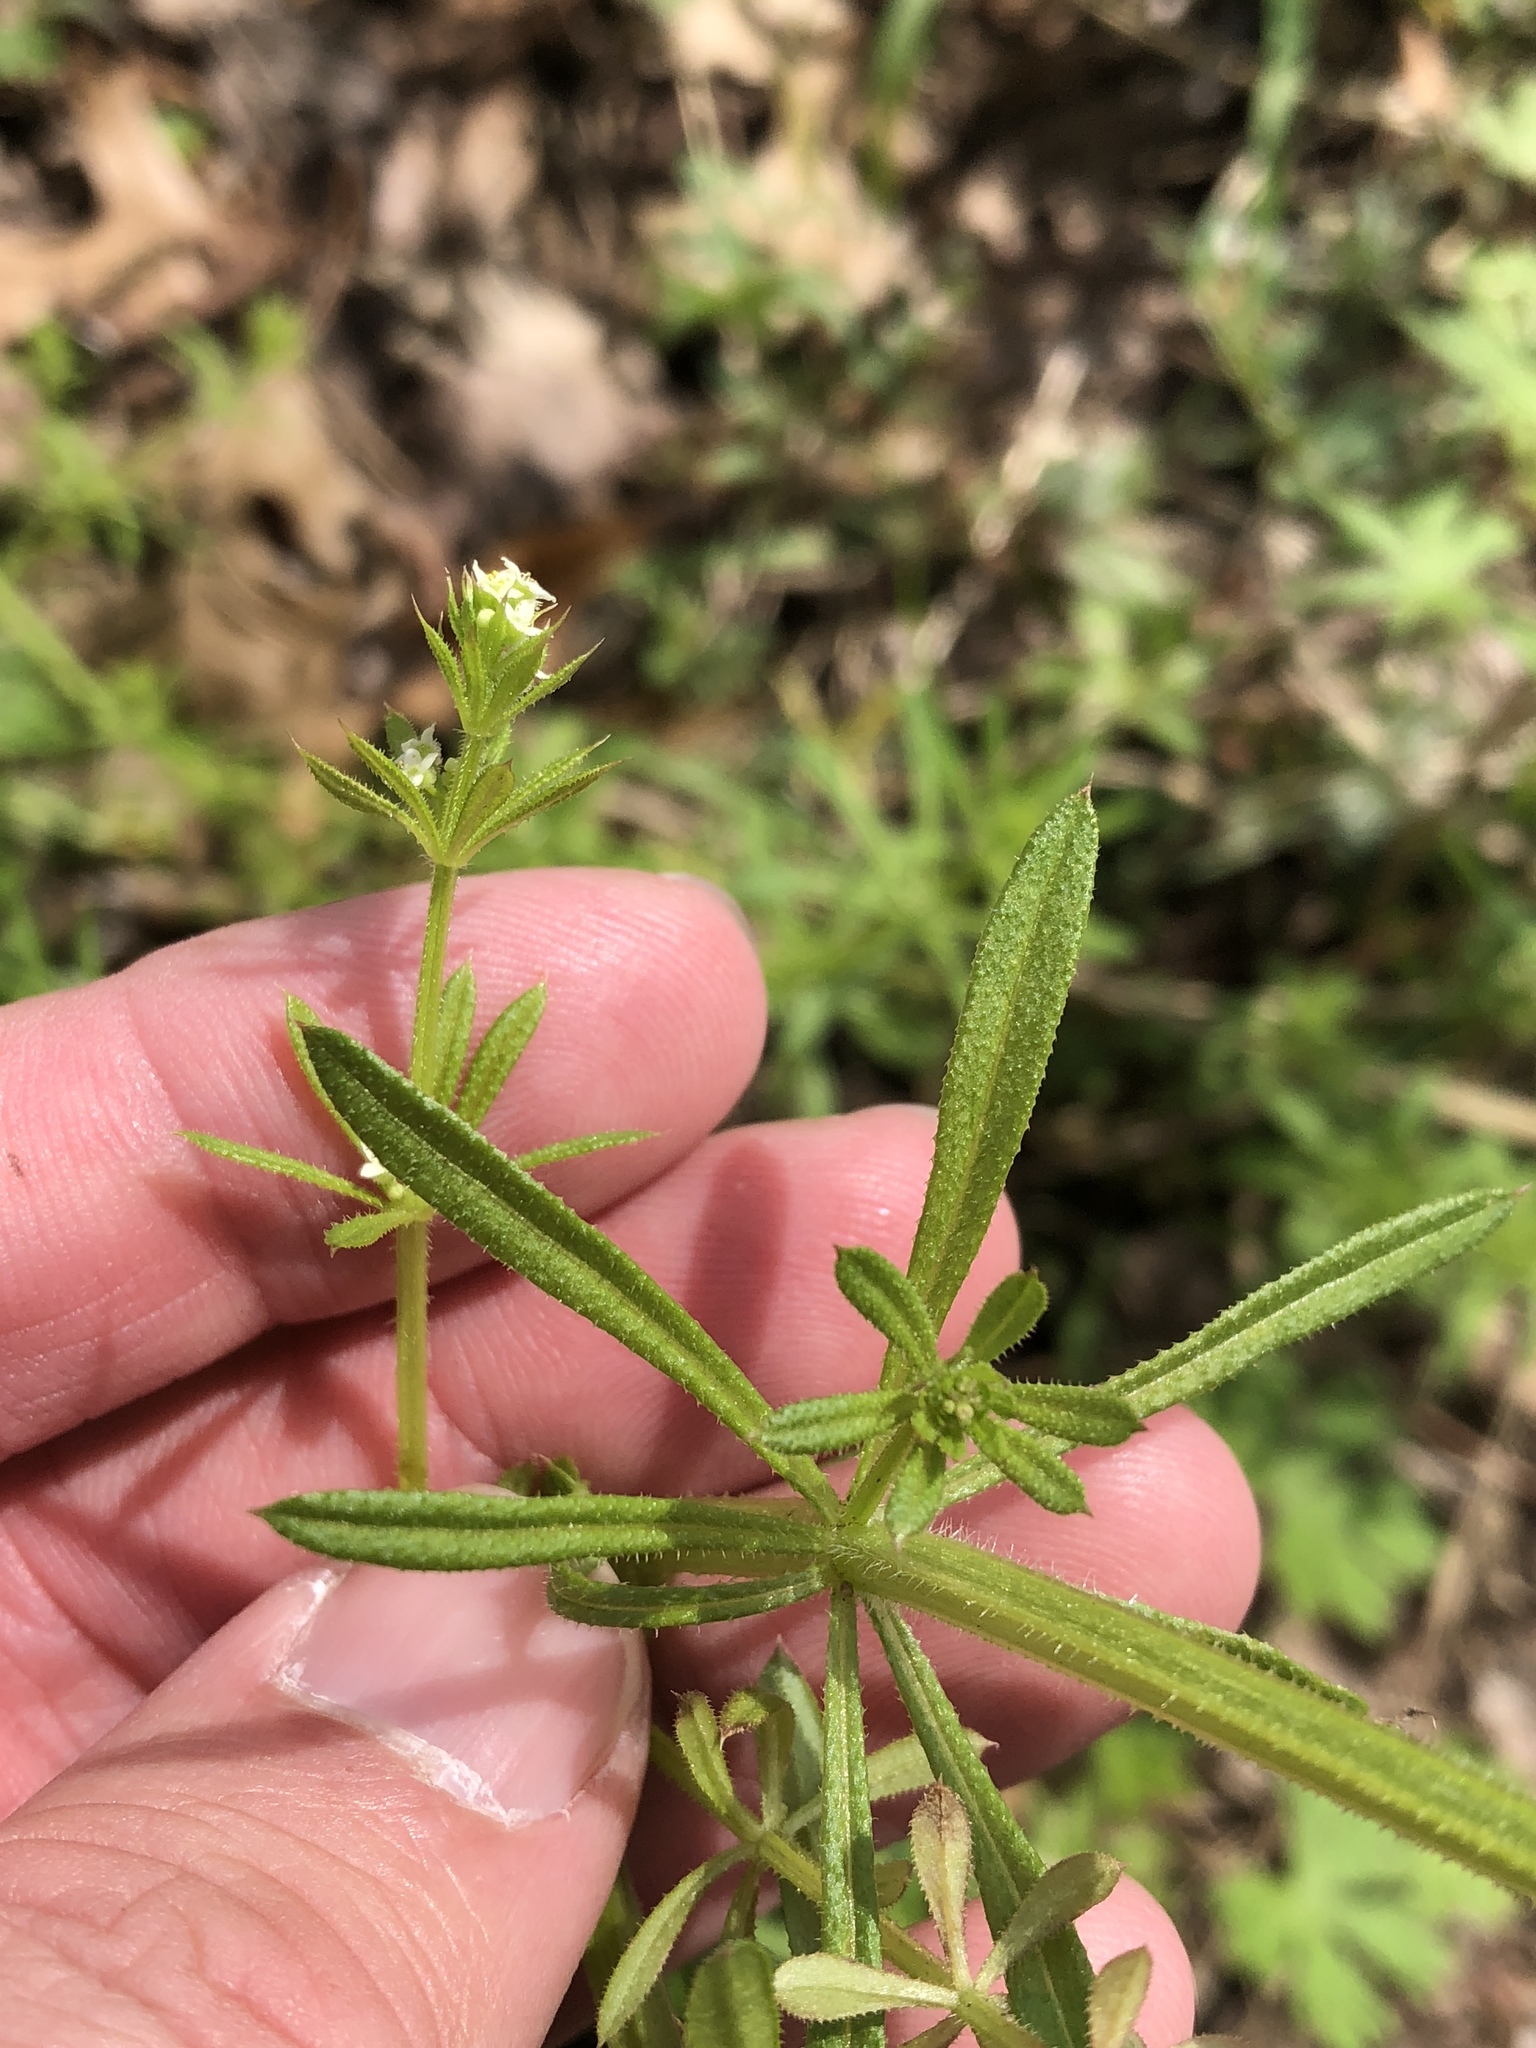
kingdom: Plantae
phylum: Tracheophyta
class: Magnoliopsida
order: Gentianales
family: Rubiaceae
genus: Galium
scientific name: Galium aparine
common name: Cleavers
